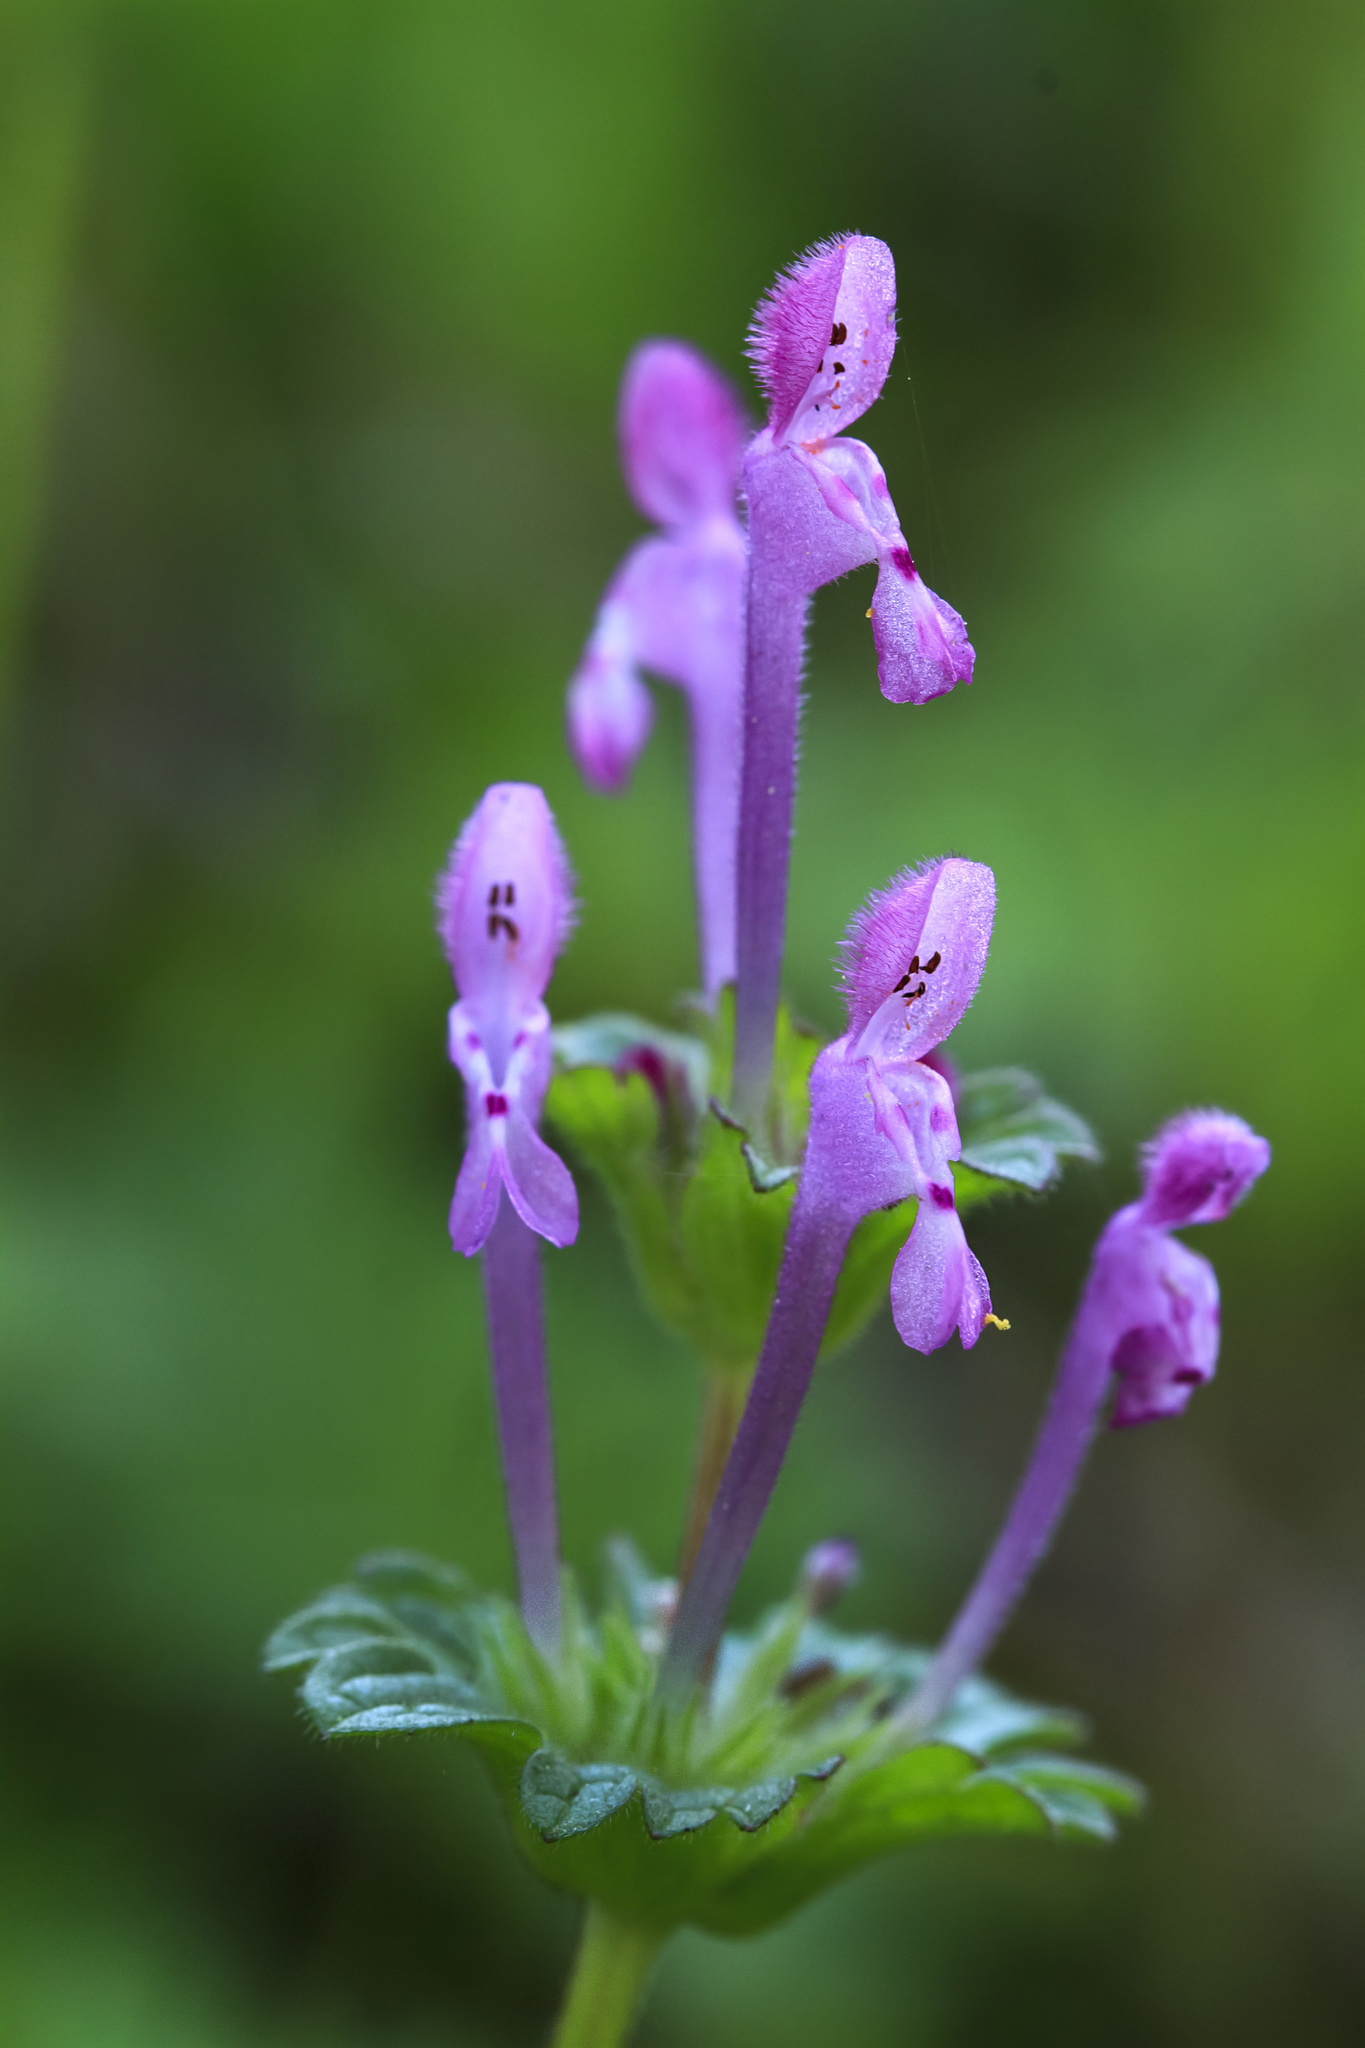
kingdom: Plantae
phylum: Tracheophyta
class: Magnoliopsida
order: Lamiales
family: Lamiaceae
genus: Lamium
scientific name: Lamium amplexicaule
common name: Henbit dead-nettle
